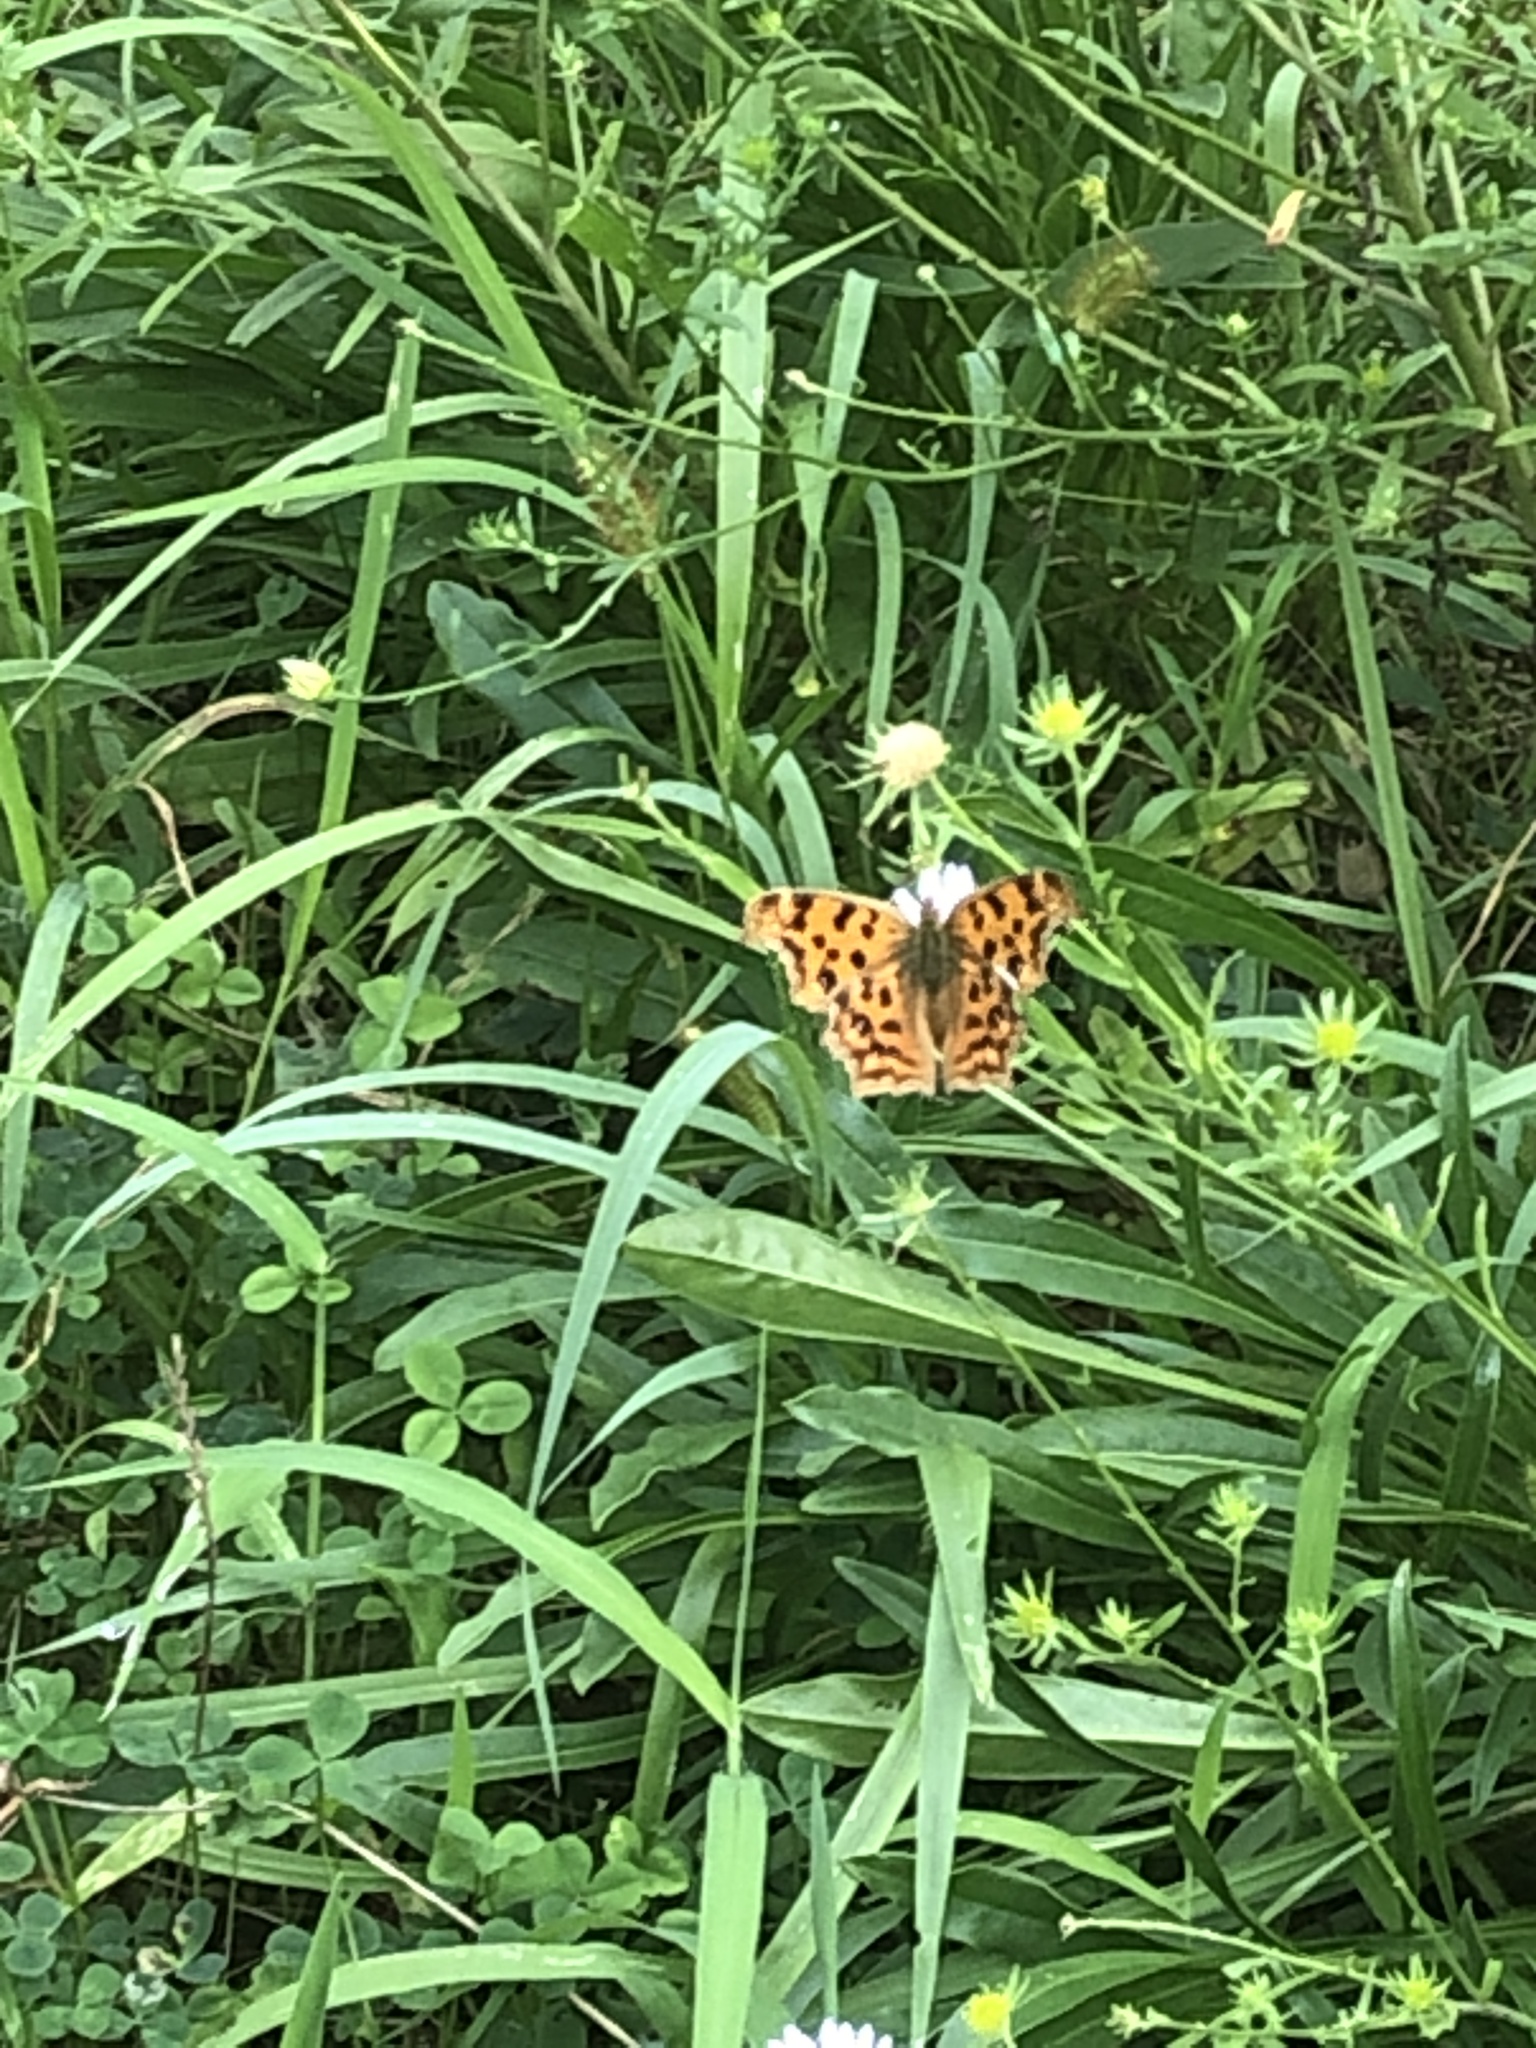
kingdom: Animalia
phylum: Arthropoda
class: Insecta
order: Lepidoptera
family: Nymphalidae
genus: Polygonia
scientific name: Polygonia c-aureum
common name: Asian comma
